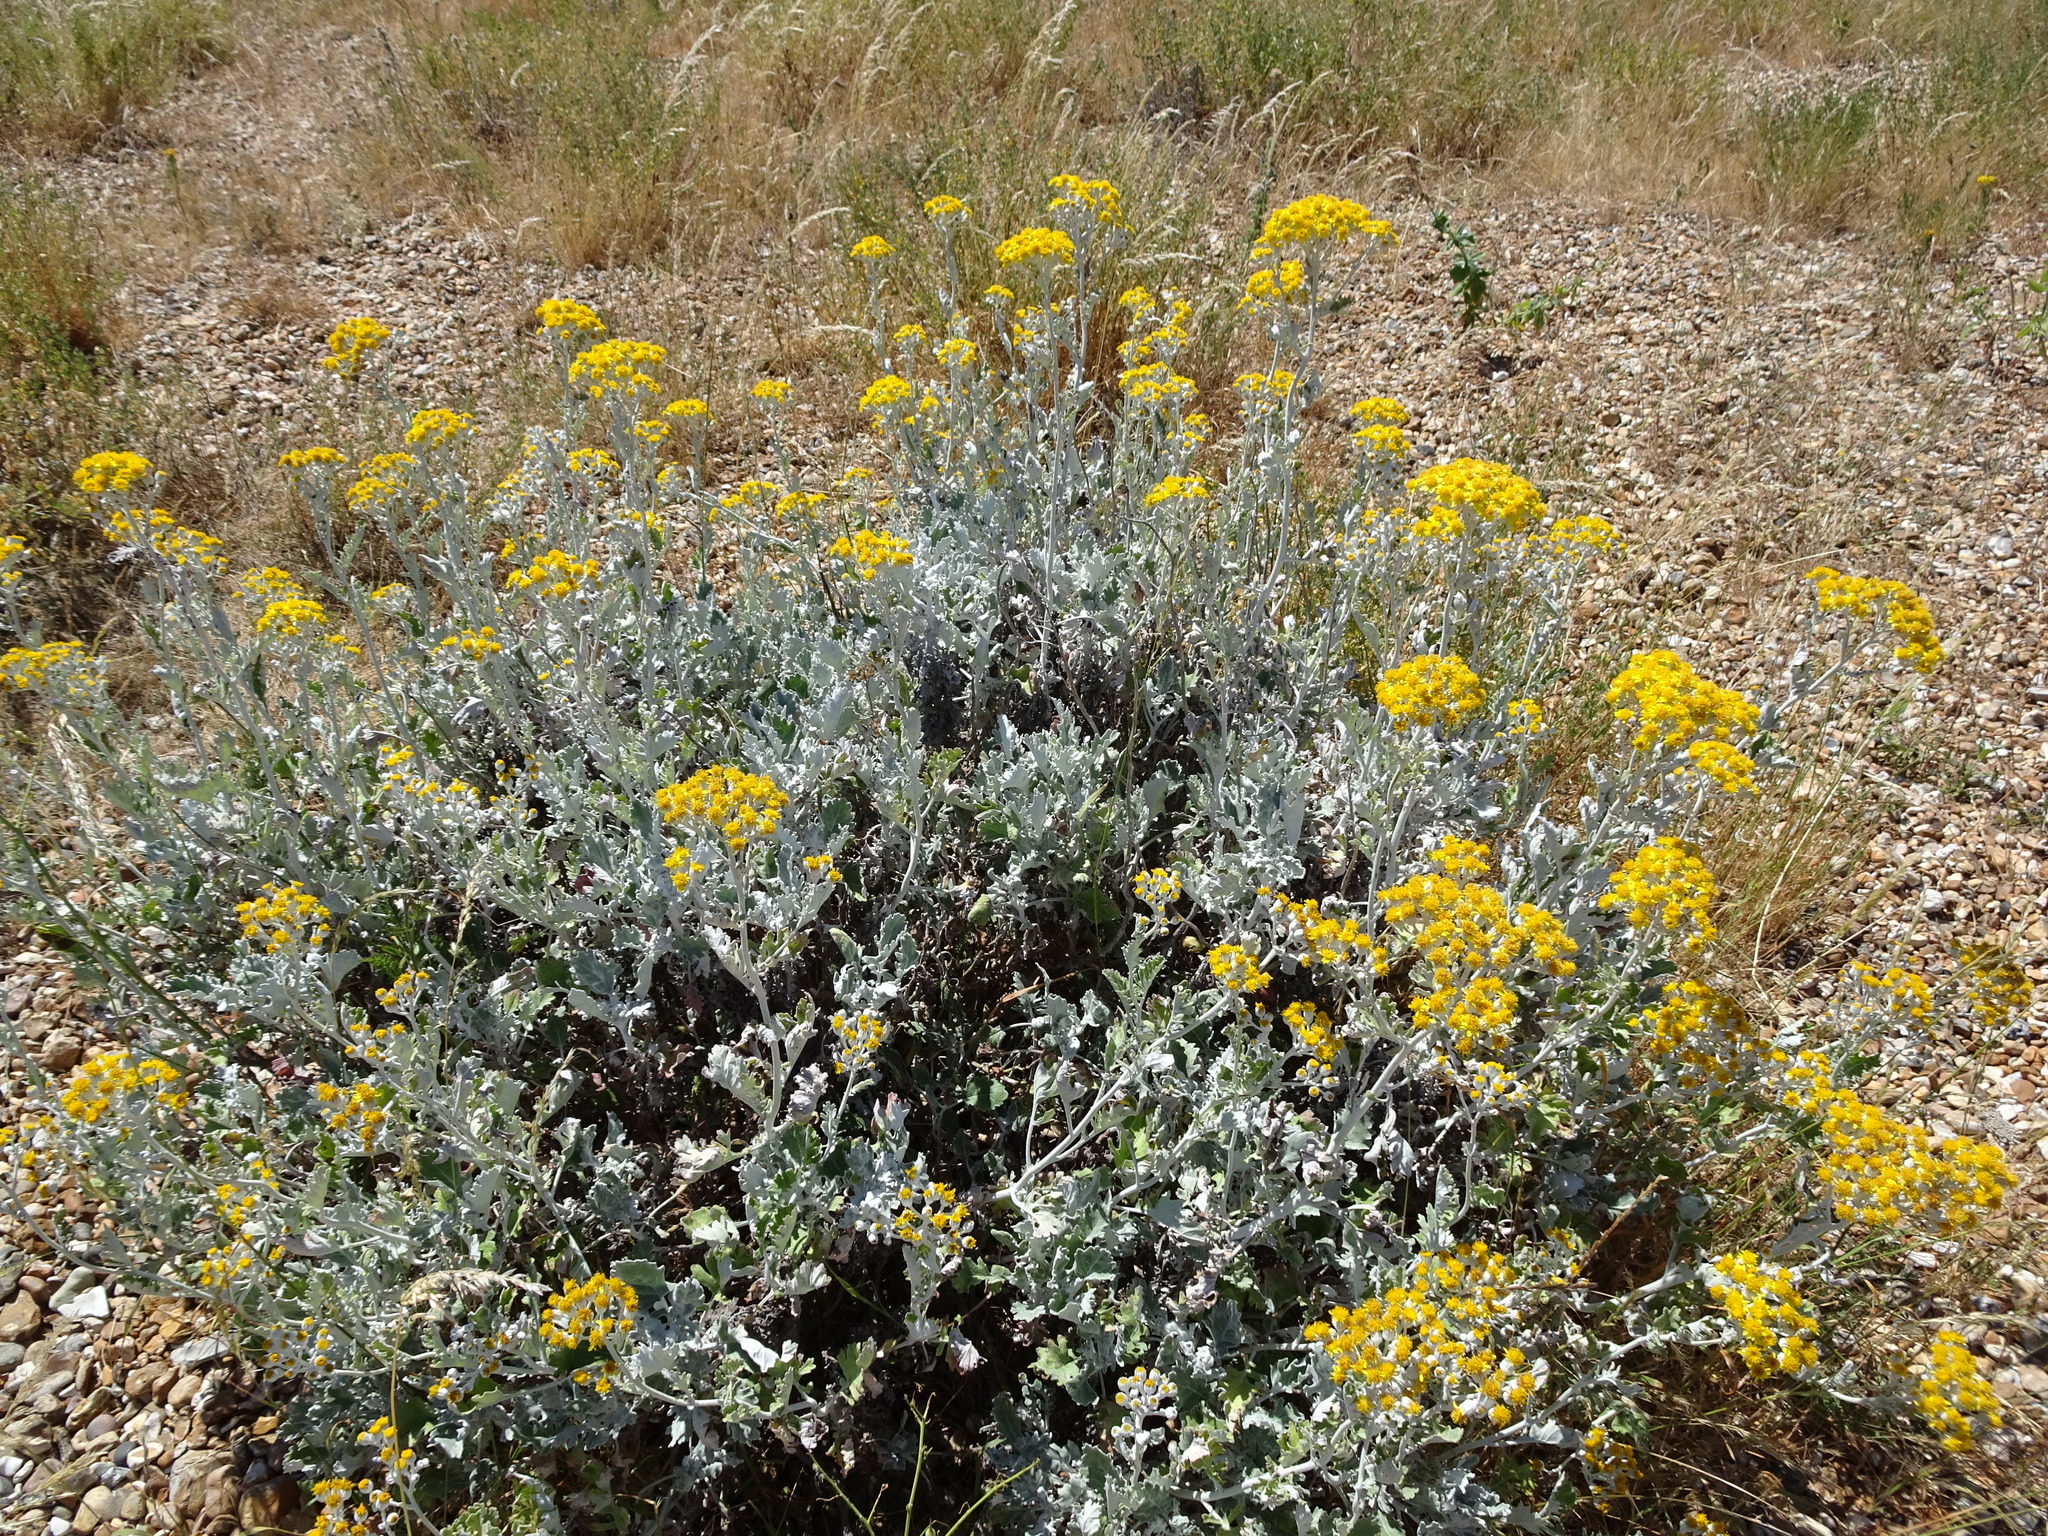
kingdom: Plantae
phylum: Tracheophyta
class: Magnoliopsida
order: Asterales
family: Asteraceae
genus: Jacobaea
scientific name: Jacobaea maritima
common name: Silver ragwort
